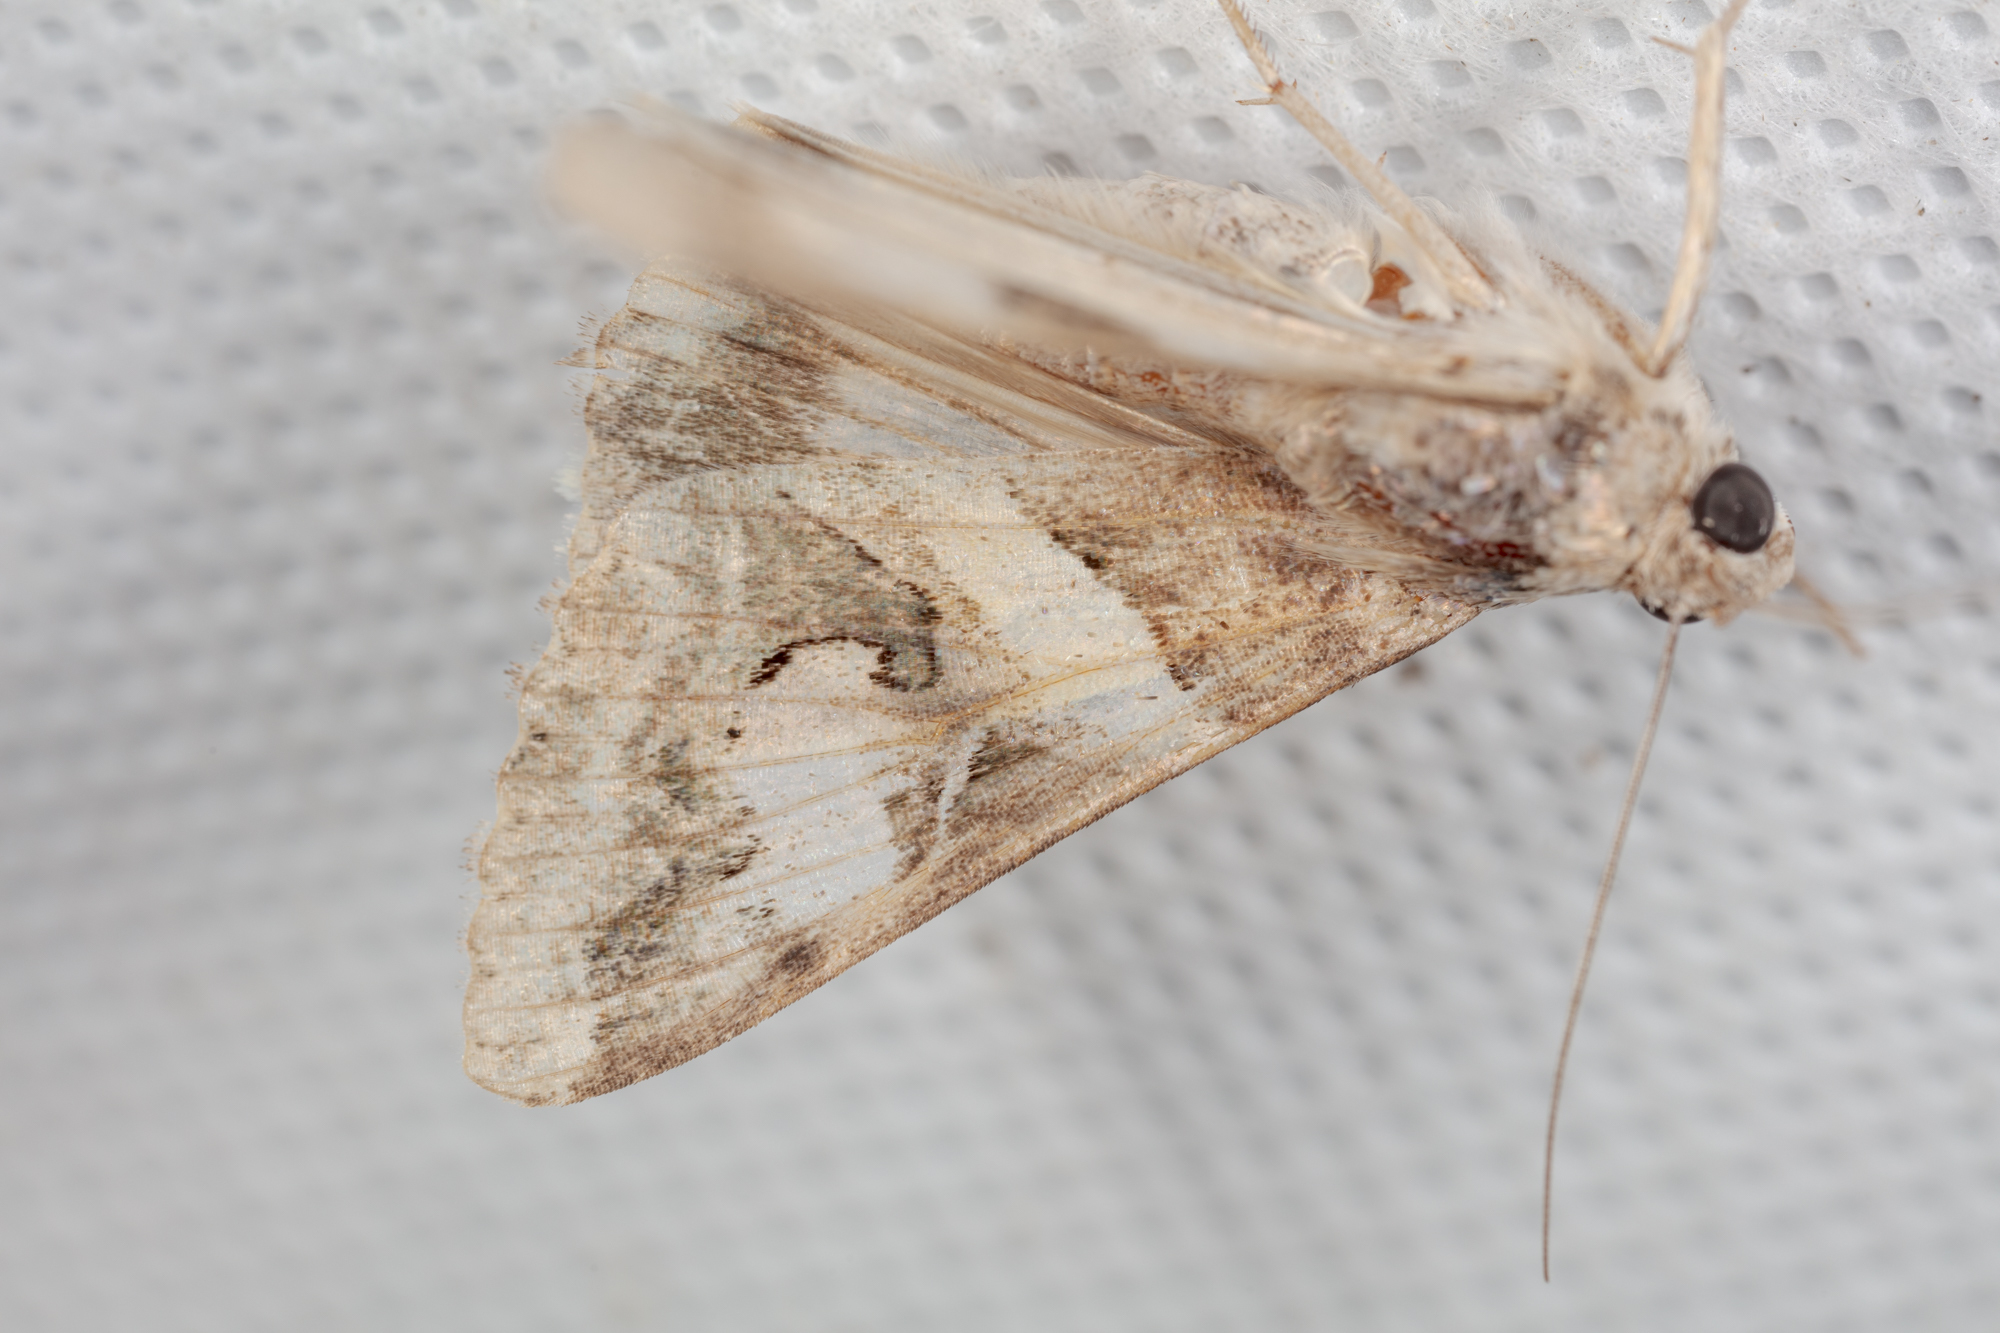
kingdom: Animalia
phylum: Arthropoda
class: Insecta
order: Lepidoptera
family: Erebidae
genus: Melipotis
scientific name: Melipotis indomita
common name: Moth
